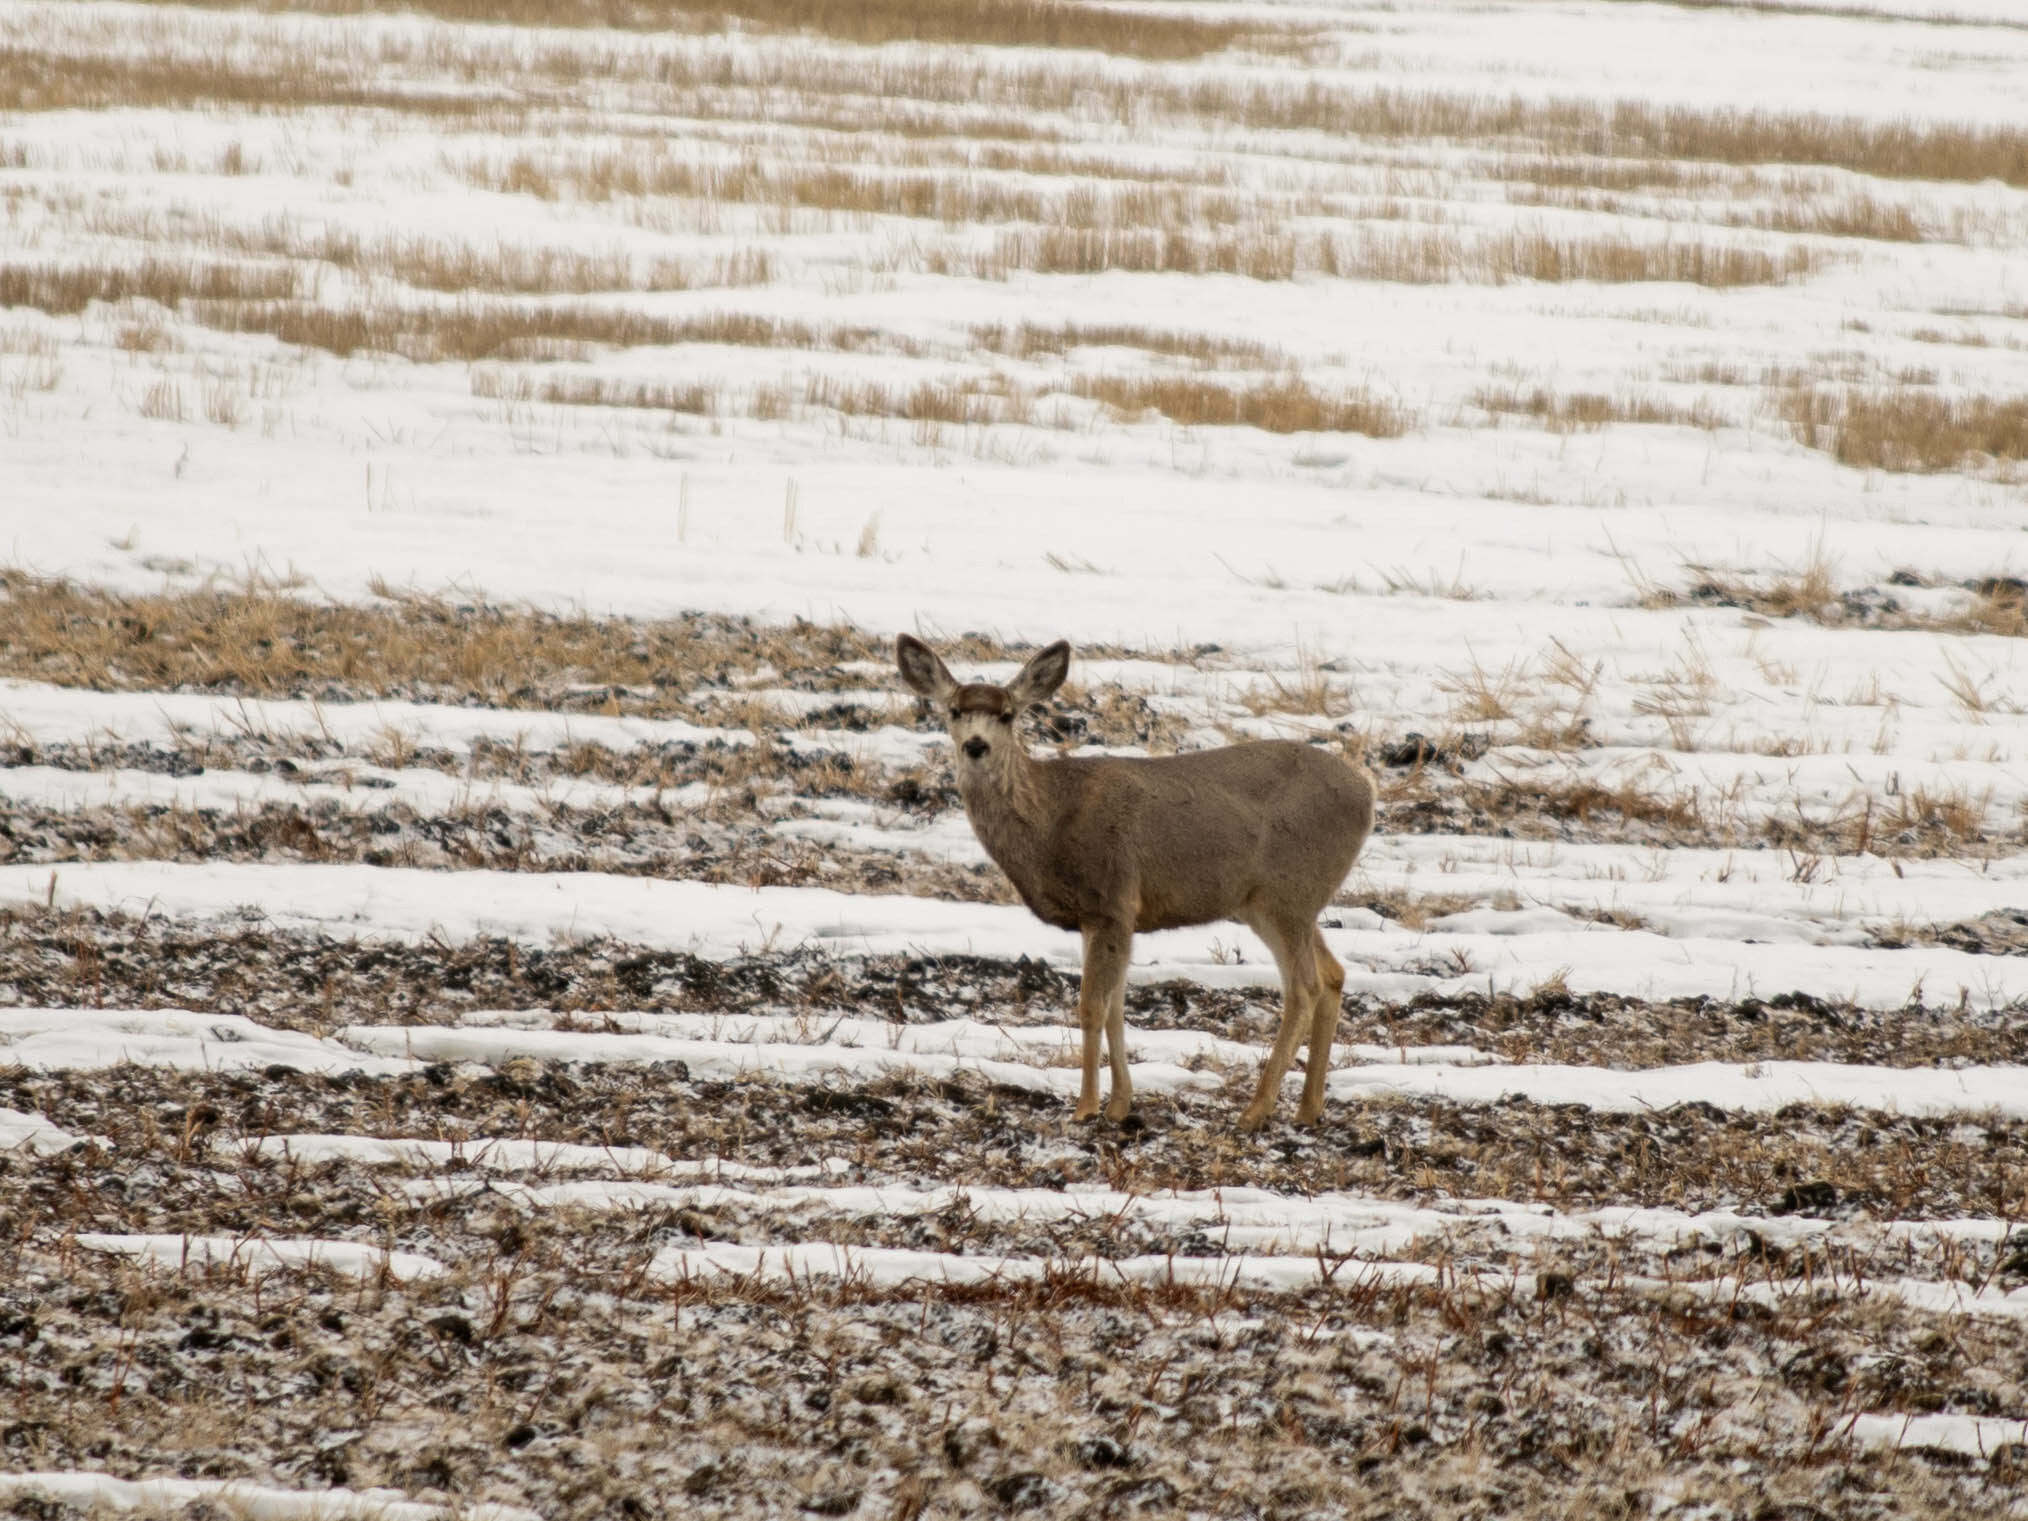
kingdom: Animalia
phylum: Chordata
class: Mammalia
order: Artiodactyla
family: Cervidae
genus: Odocoileus
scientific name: Odocoileus hemionus
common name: Mule deer
